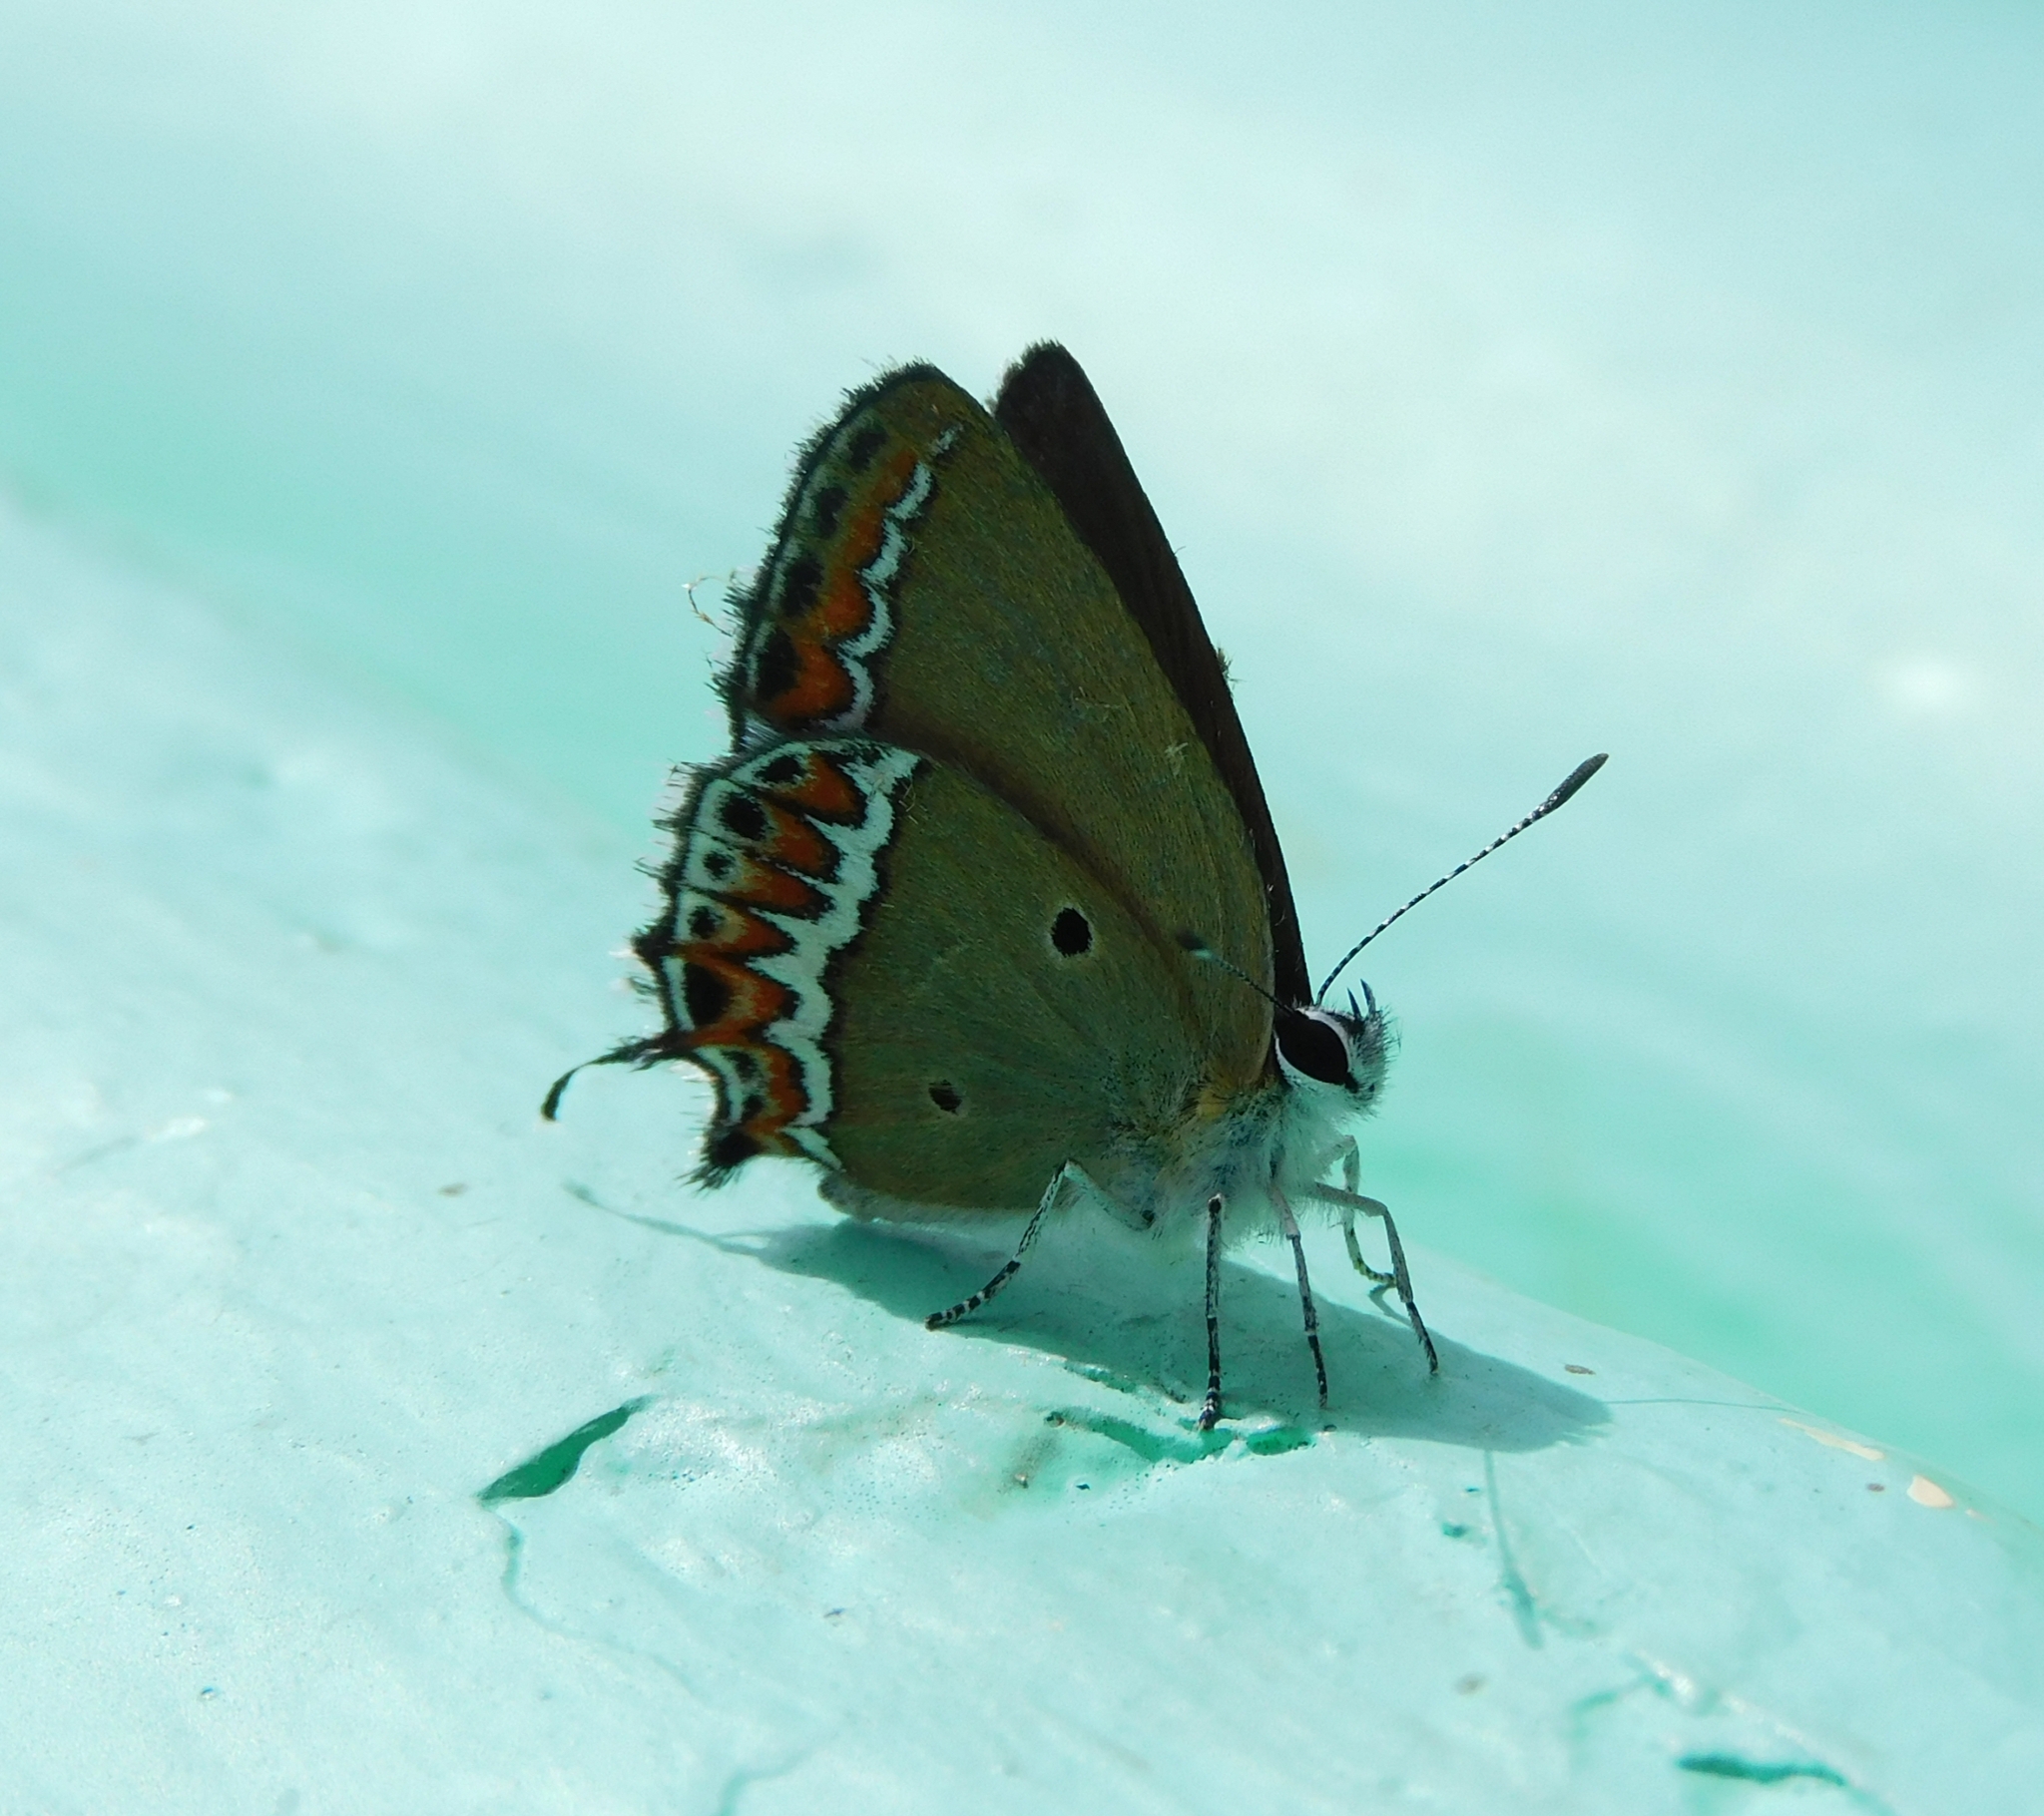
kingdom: Animalia
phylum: Arthropoda
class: Insecta
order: Lepidoptera
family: Lycaenidae
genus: Heliophorus
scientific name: Heliophorus sena
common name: Sorrel sapphire
